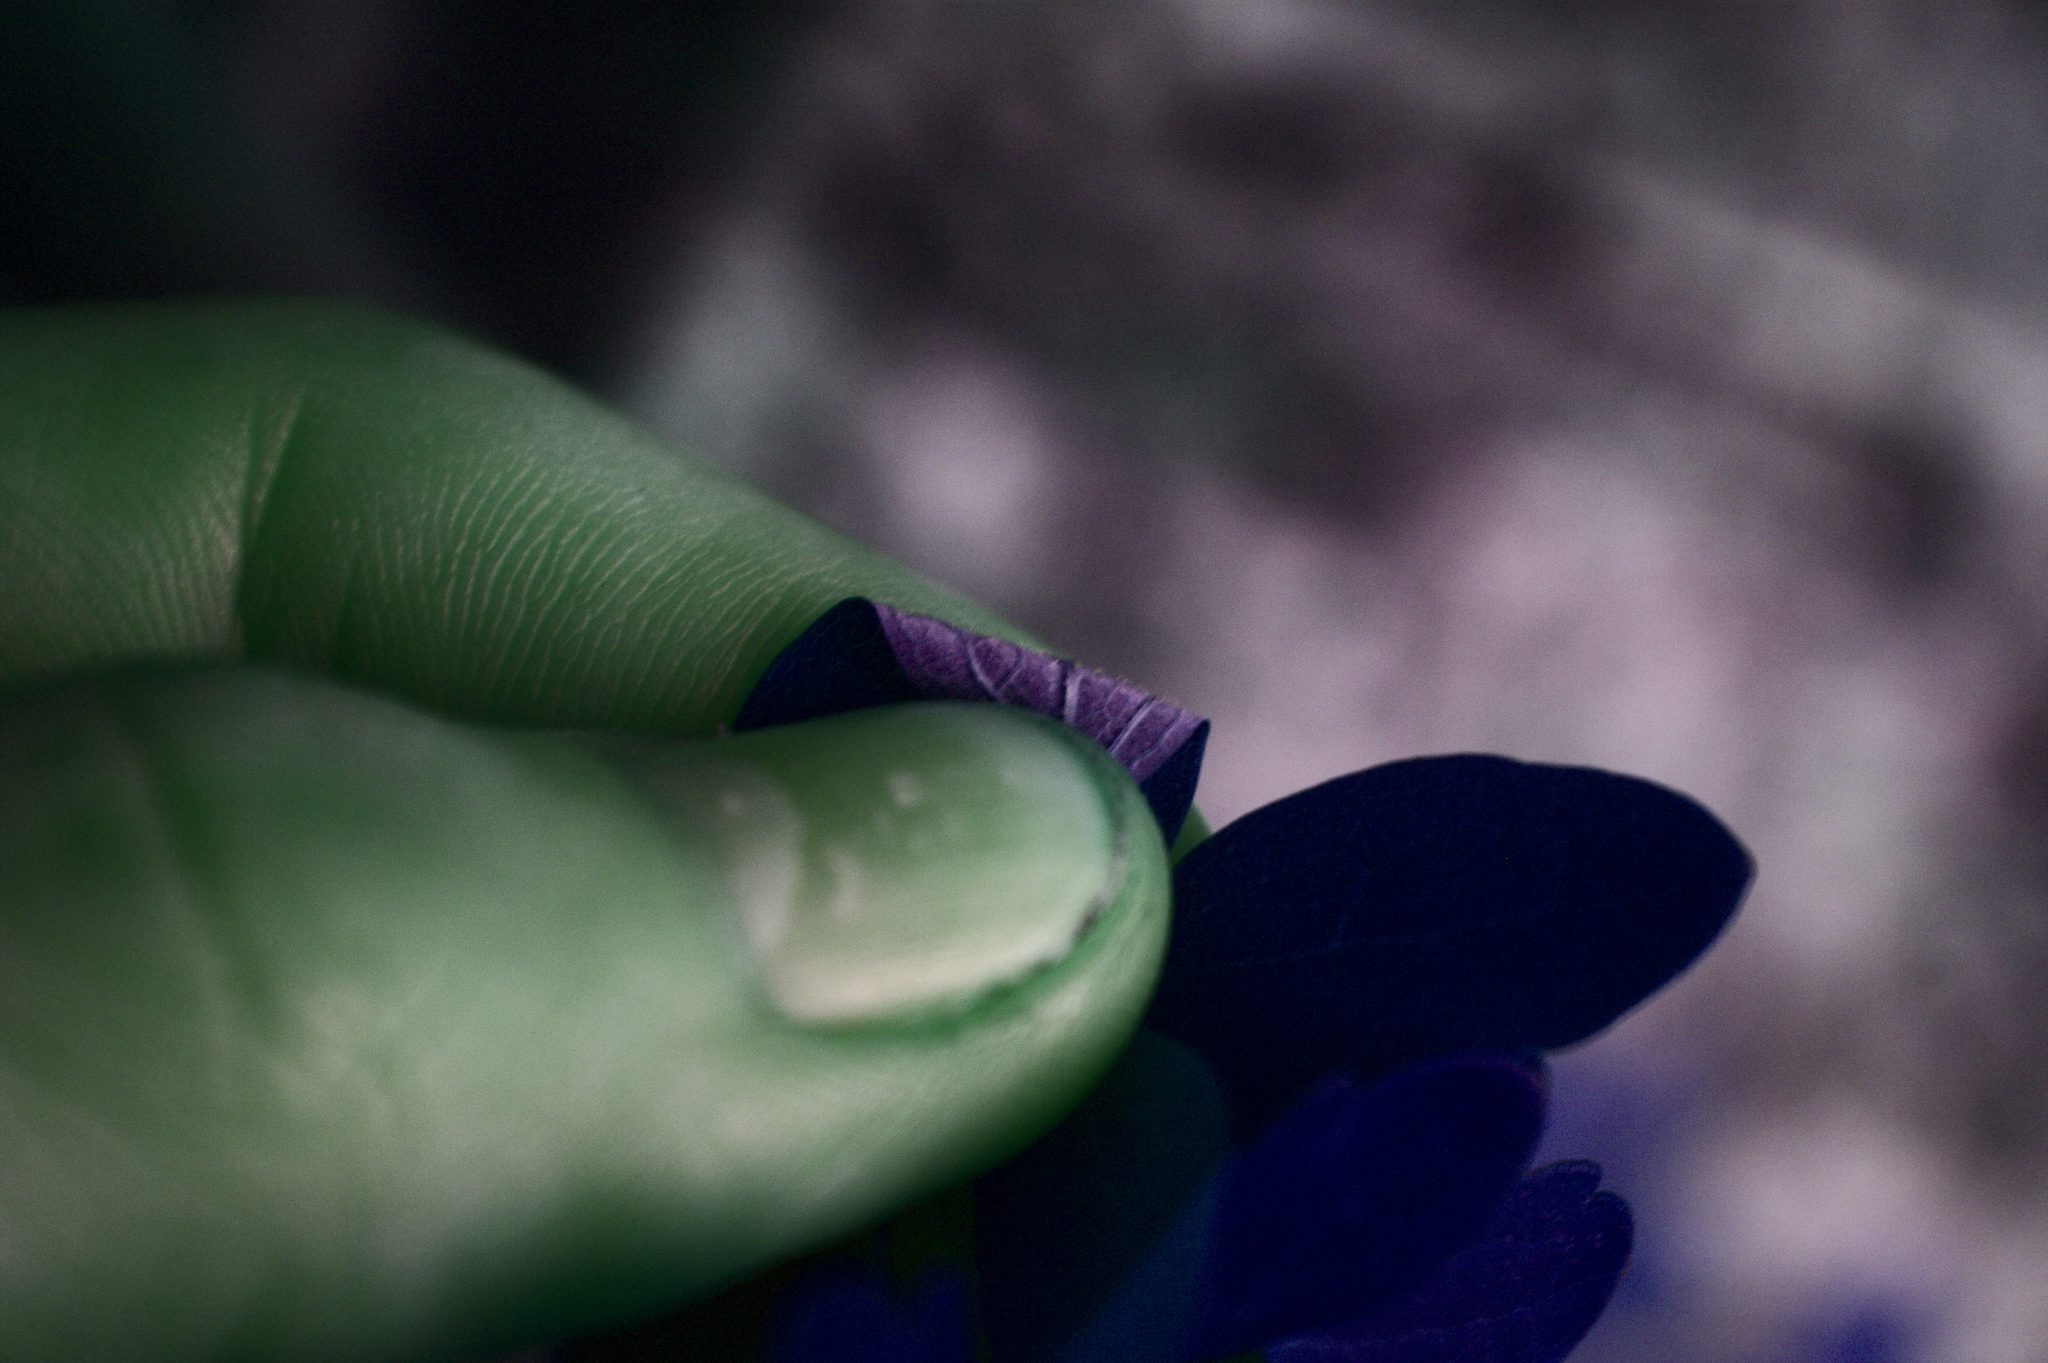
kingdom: Plantae
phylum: Tracheophyta
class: Magnoliopsida
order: Ranunculales
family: Ranunculaceae
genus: Thalictrum
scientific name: Thalictrum pubescens
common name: King-of-the-meadow
